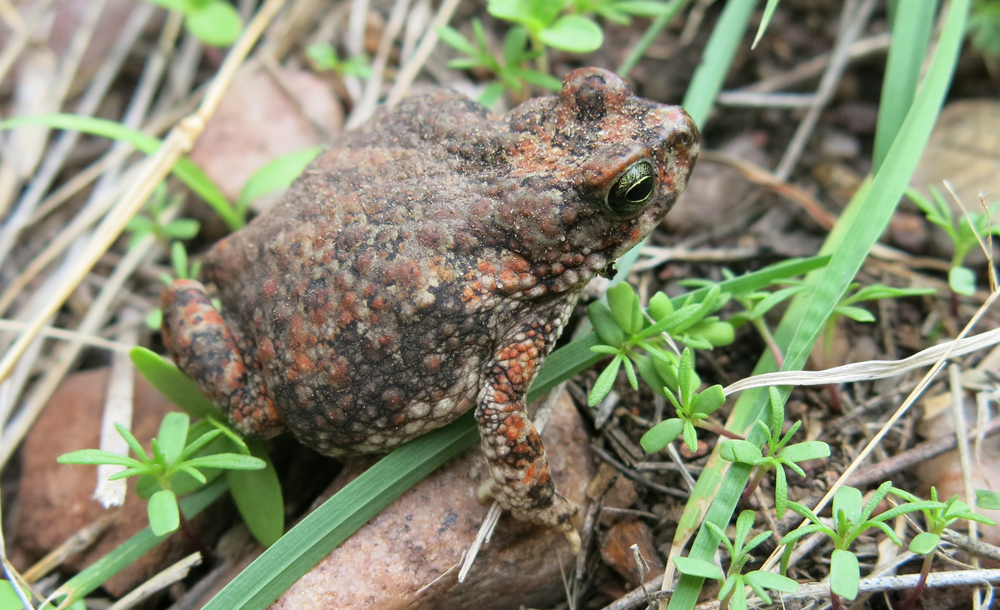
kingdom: Animalia
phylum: Chordata
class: Amphibia
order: Anura
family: Bufonidae
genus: Poyntonophrynus
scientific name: Poyntonophrynus fenoulheti
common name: Fenoulhet's toad
